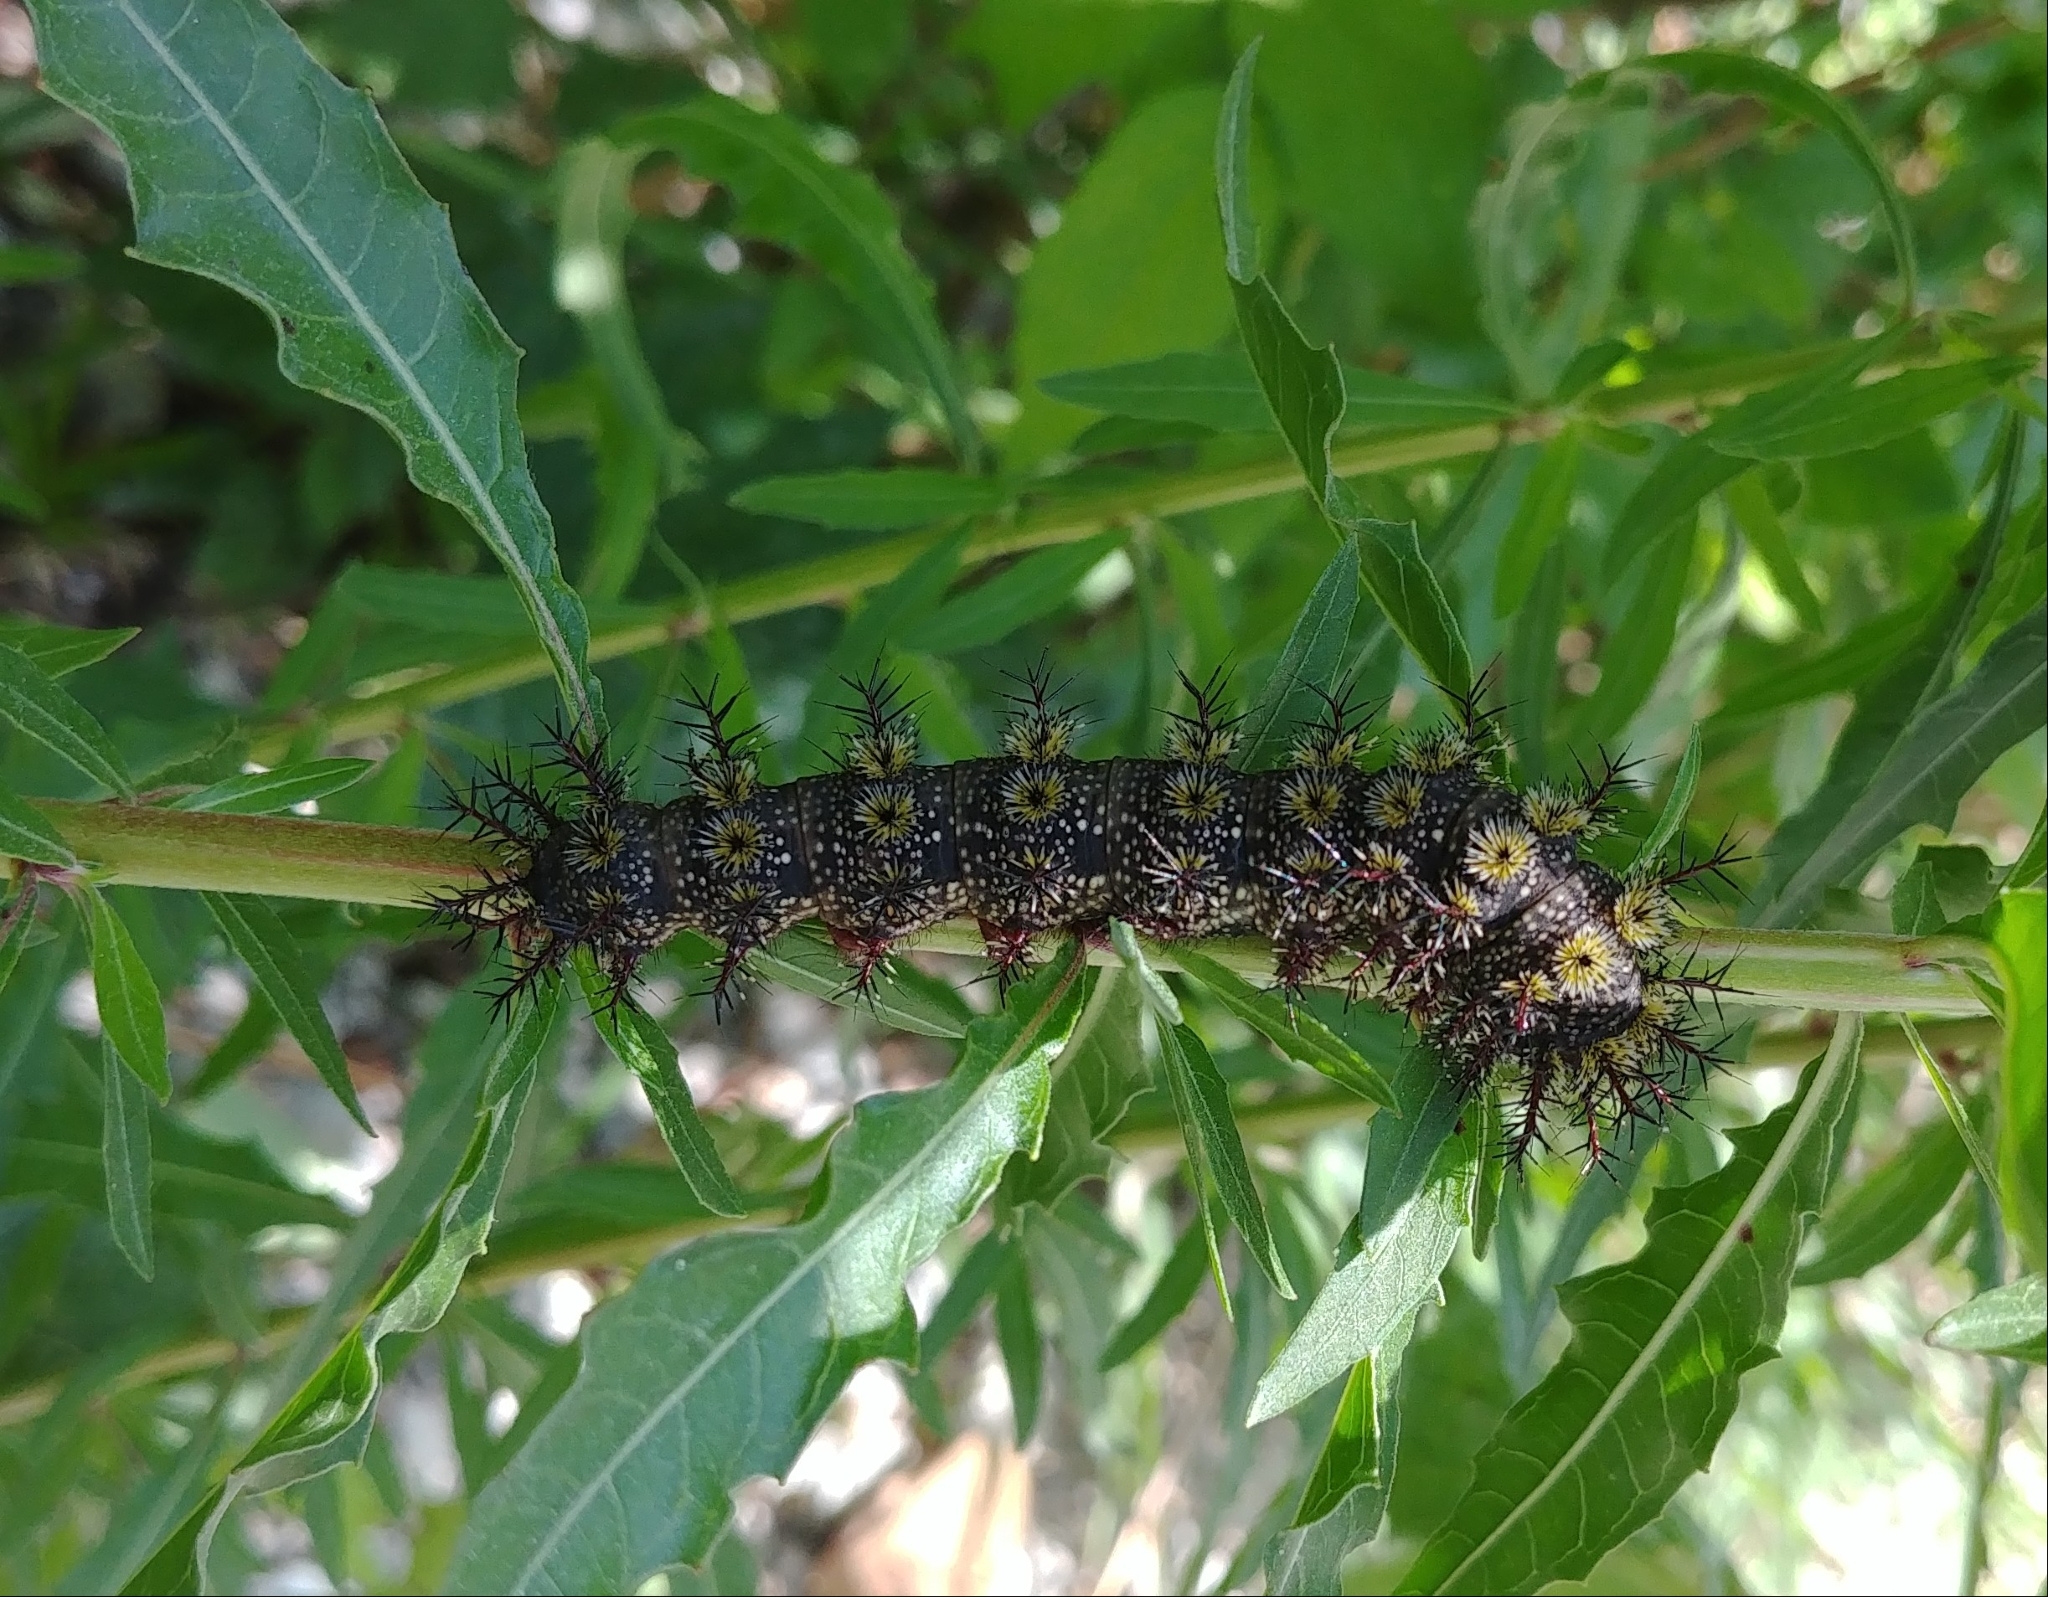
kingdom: Animalia
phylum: Arthropoda
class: Insecta
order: Lepidoptera
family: Saturniidae
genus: Hemileuca
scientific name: Hemileuca maia
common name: Eastern buckmoth
